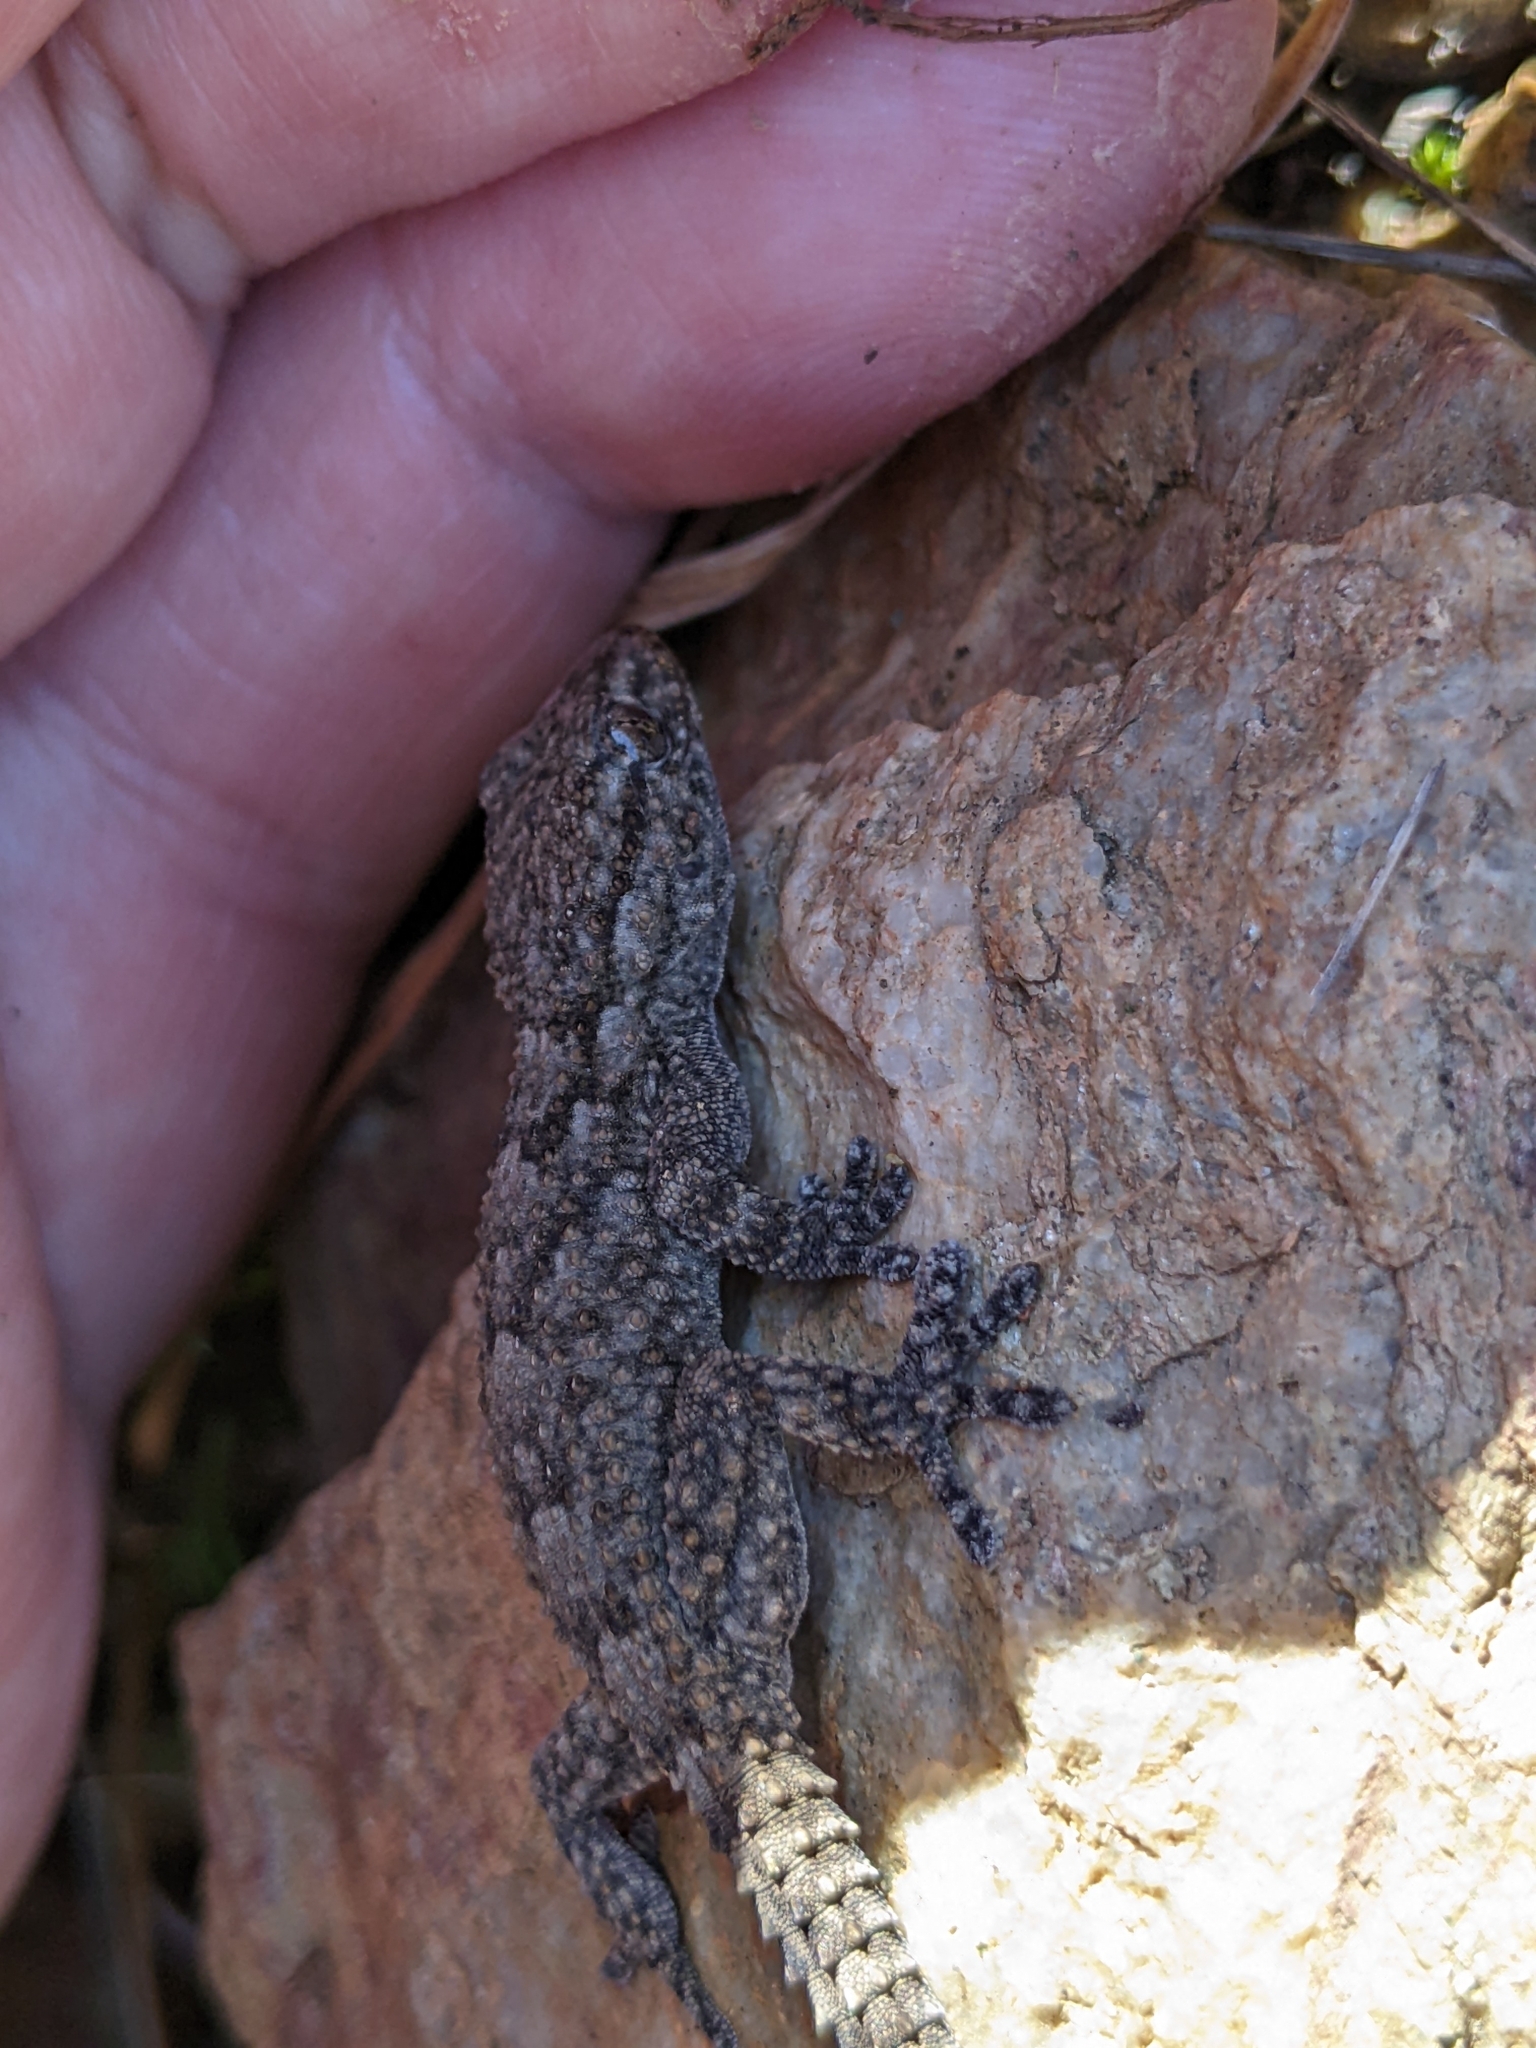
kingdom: Animalia
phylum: Chordata
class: Squamata
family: Phyllodactylidae
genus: Tarentola
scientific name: Tarentola mauritanica
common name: Moorish gecko
